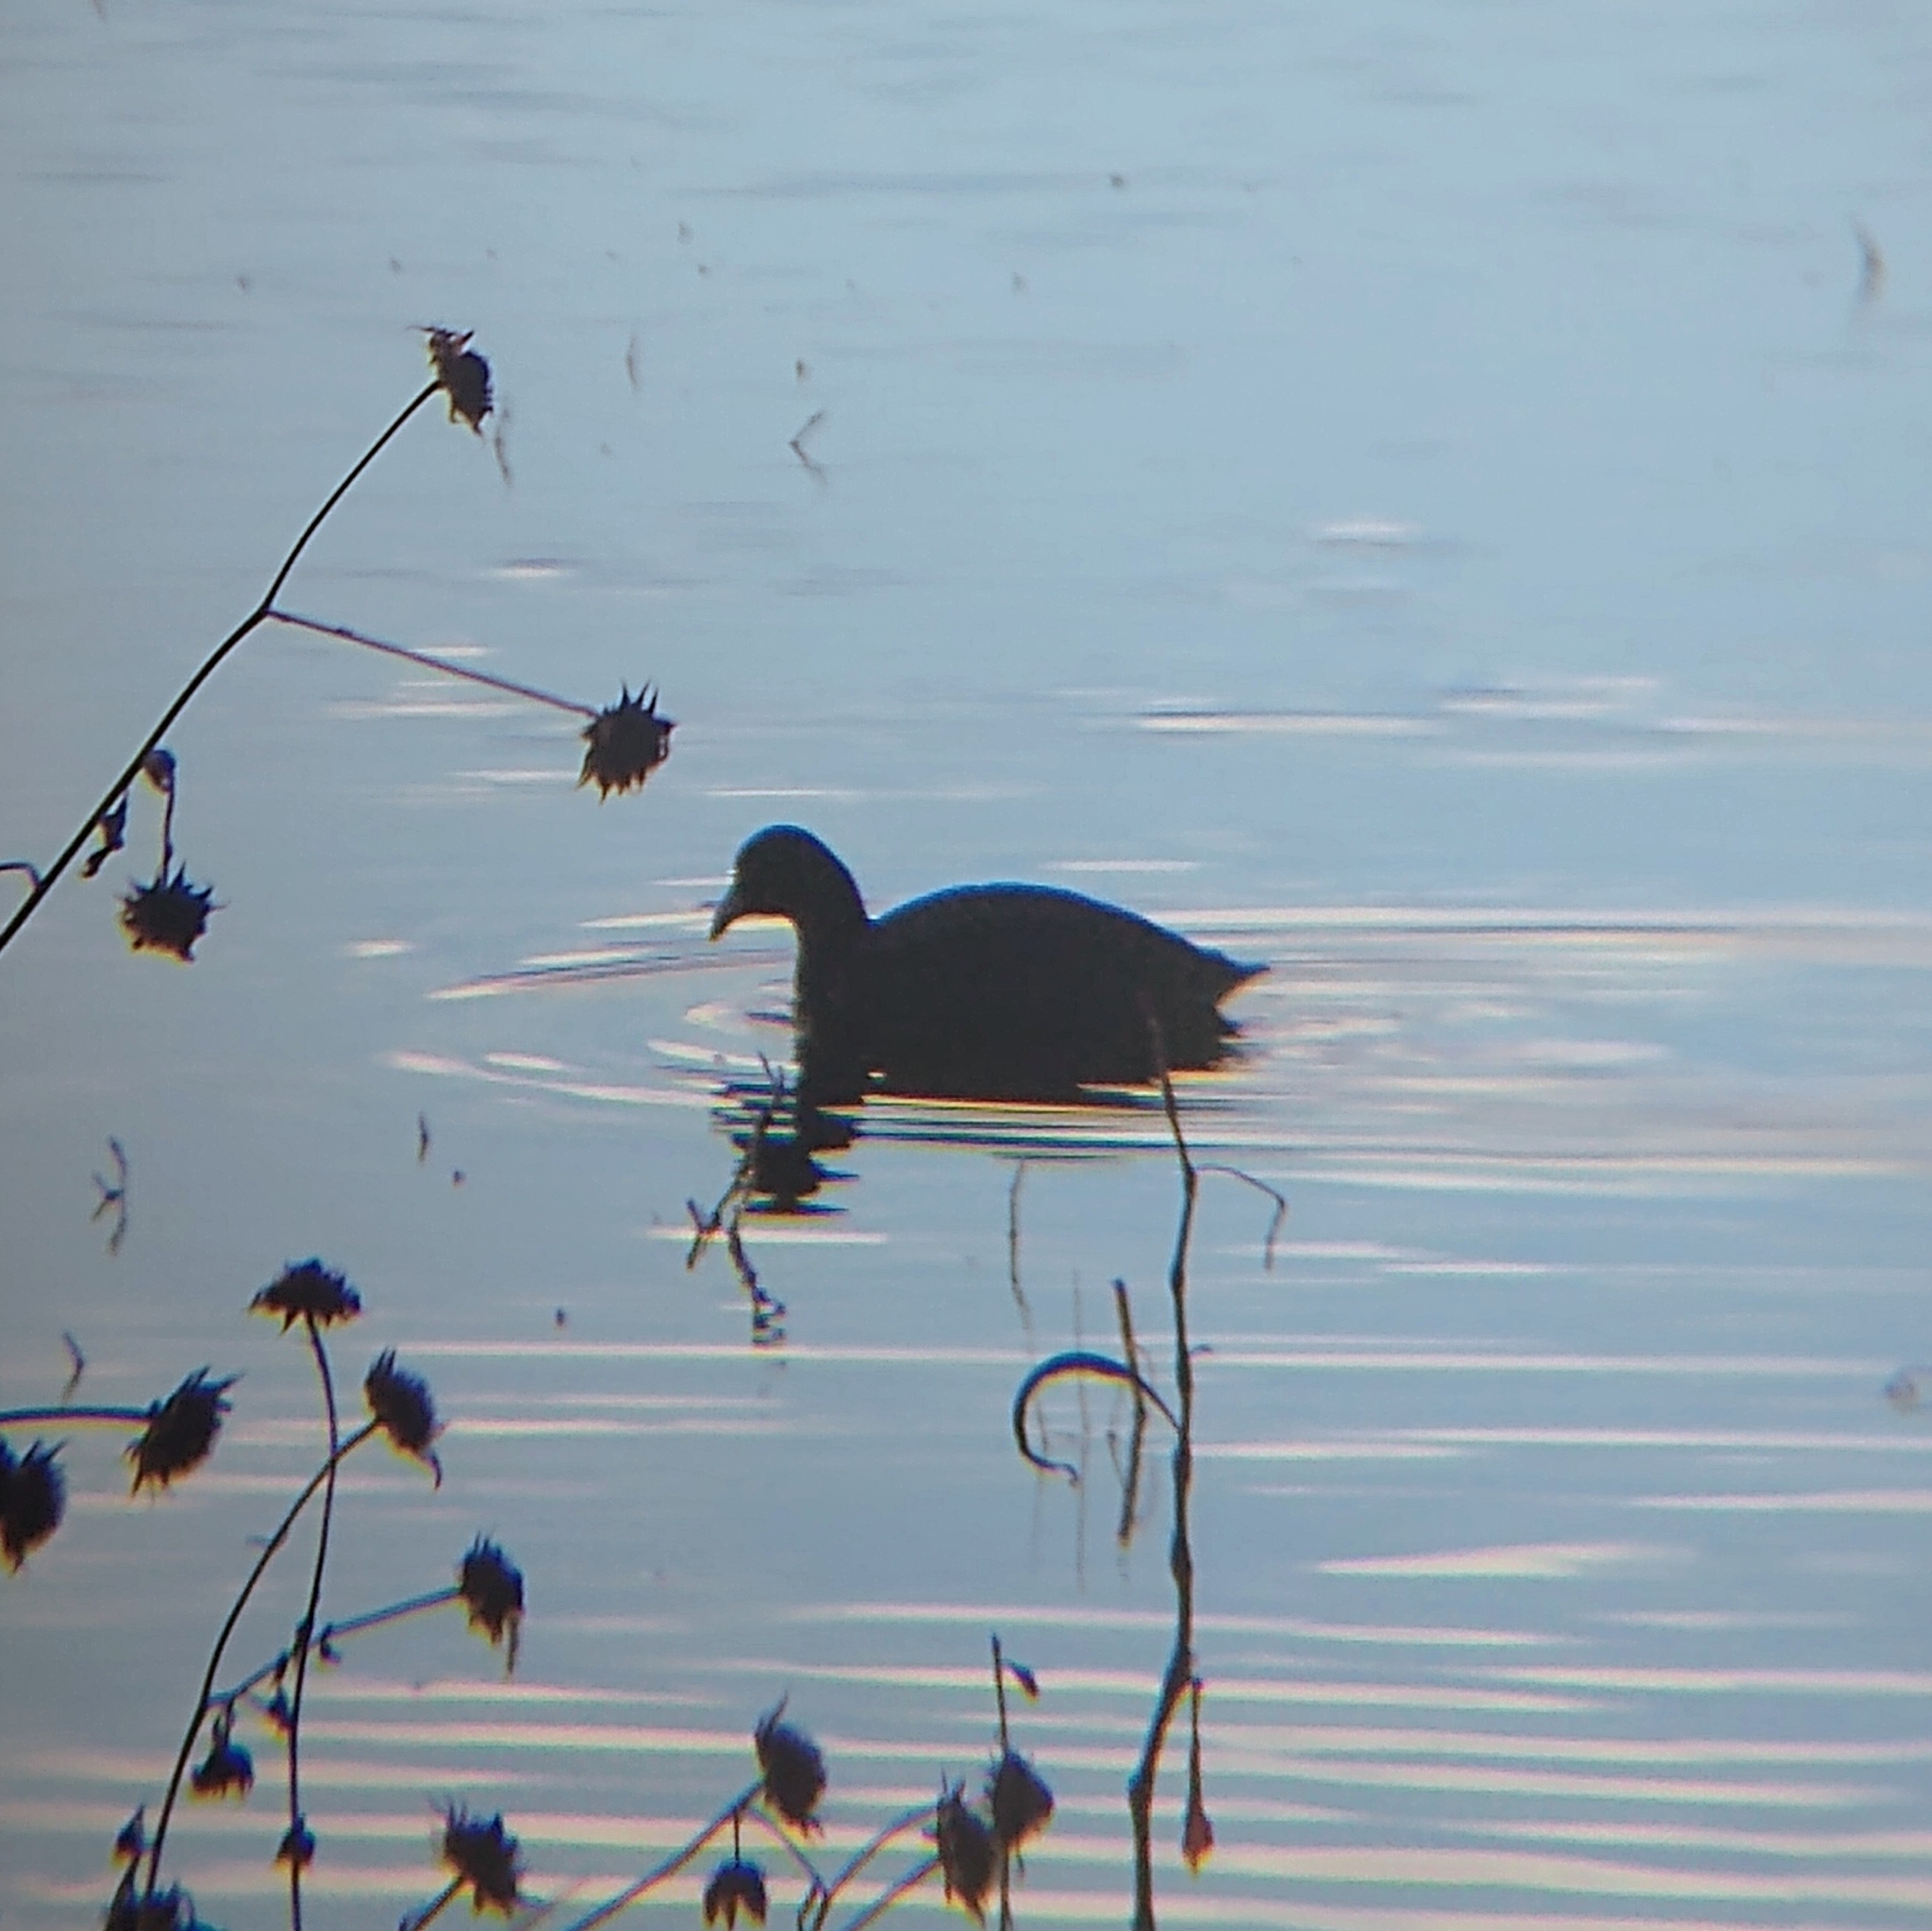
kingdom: Animalia
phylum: Chordata
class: Aves
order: Gruiformes
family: Rallidae
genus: Fulica
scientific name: Fulica americana
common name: American coot
